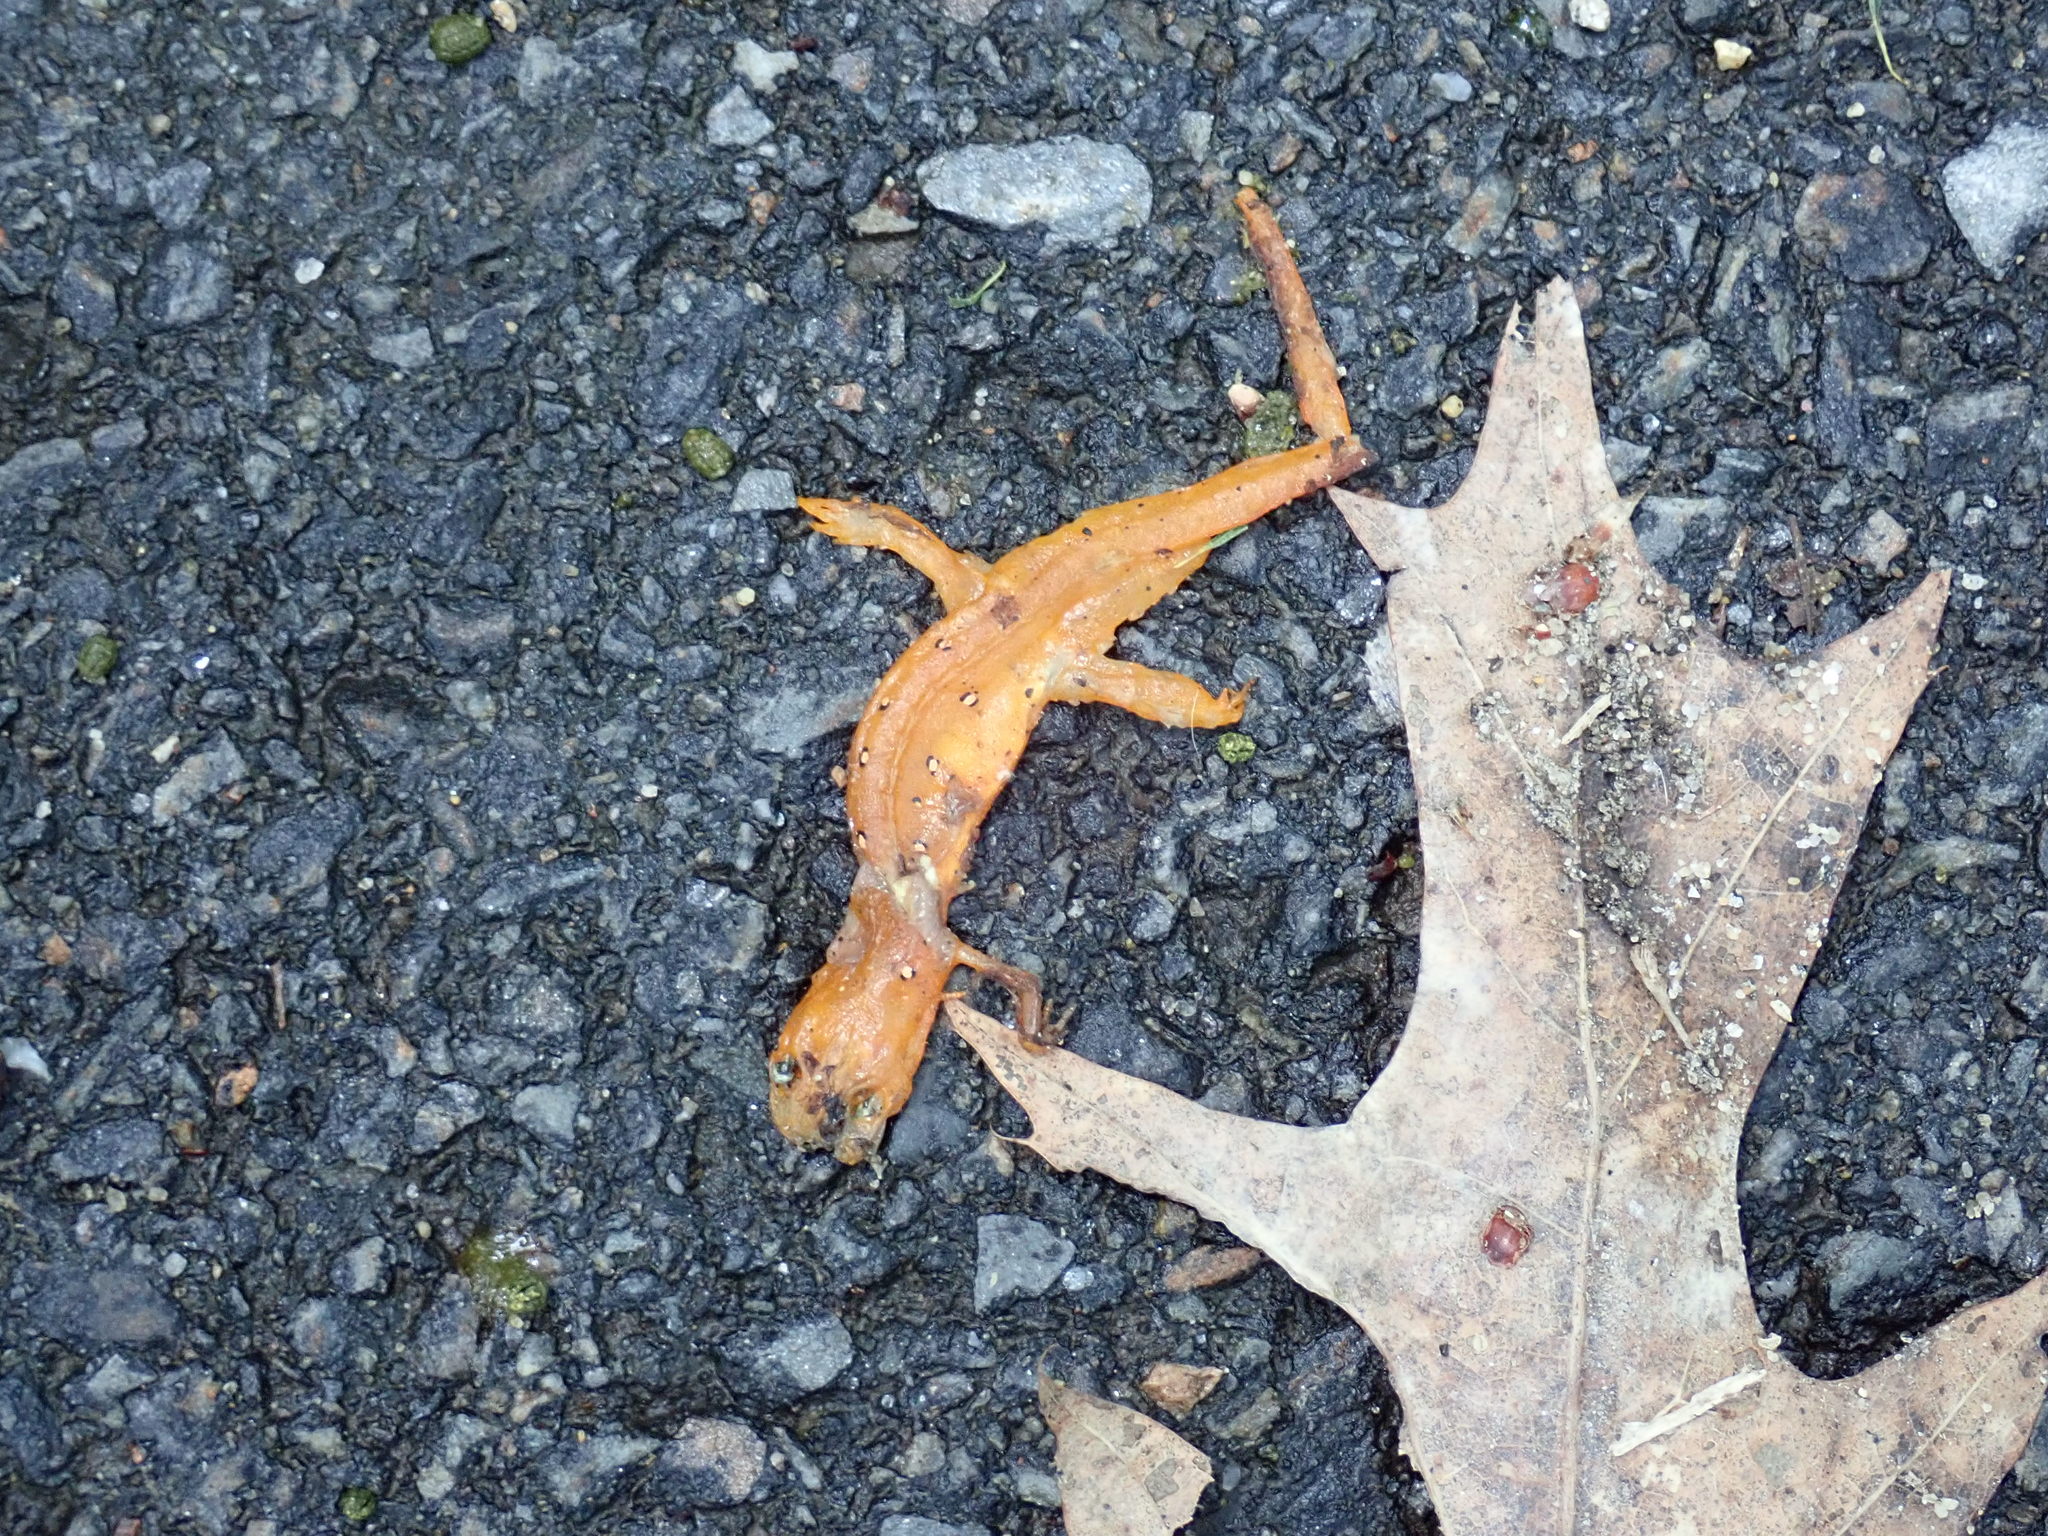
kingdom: Animalia
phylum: Chordata
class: Amphibia
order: Caudata
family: Salamandridae
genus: Notophthalmus
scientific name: Notophthalmus viridescens
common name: Eastern newt
